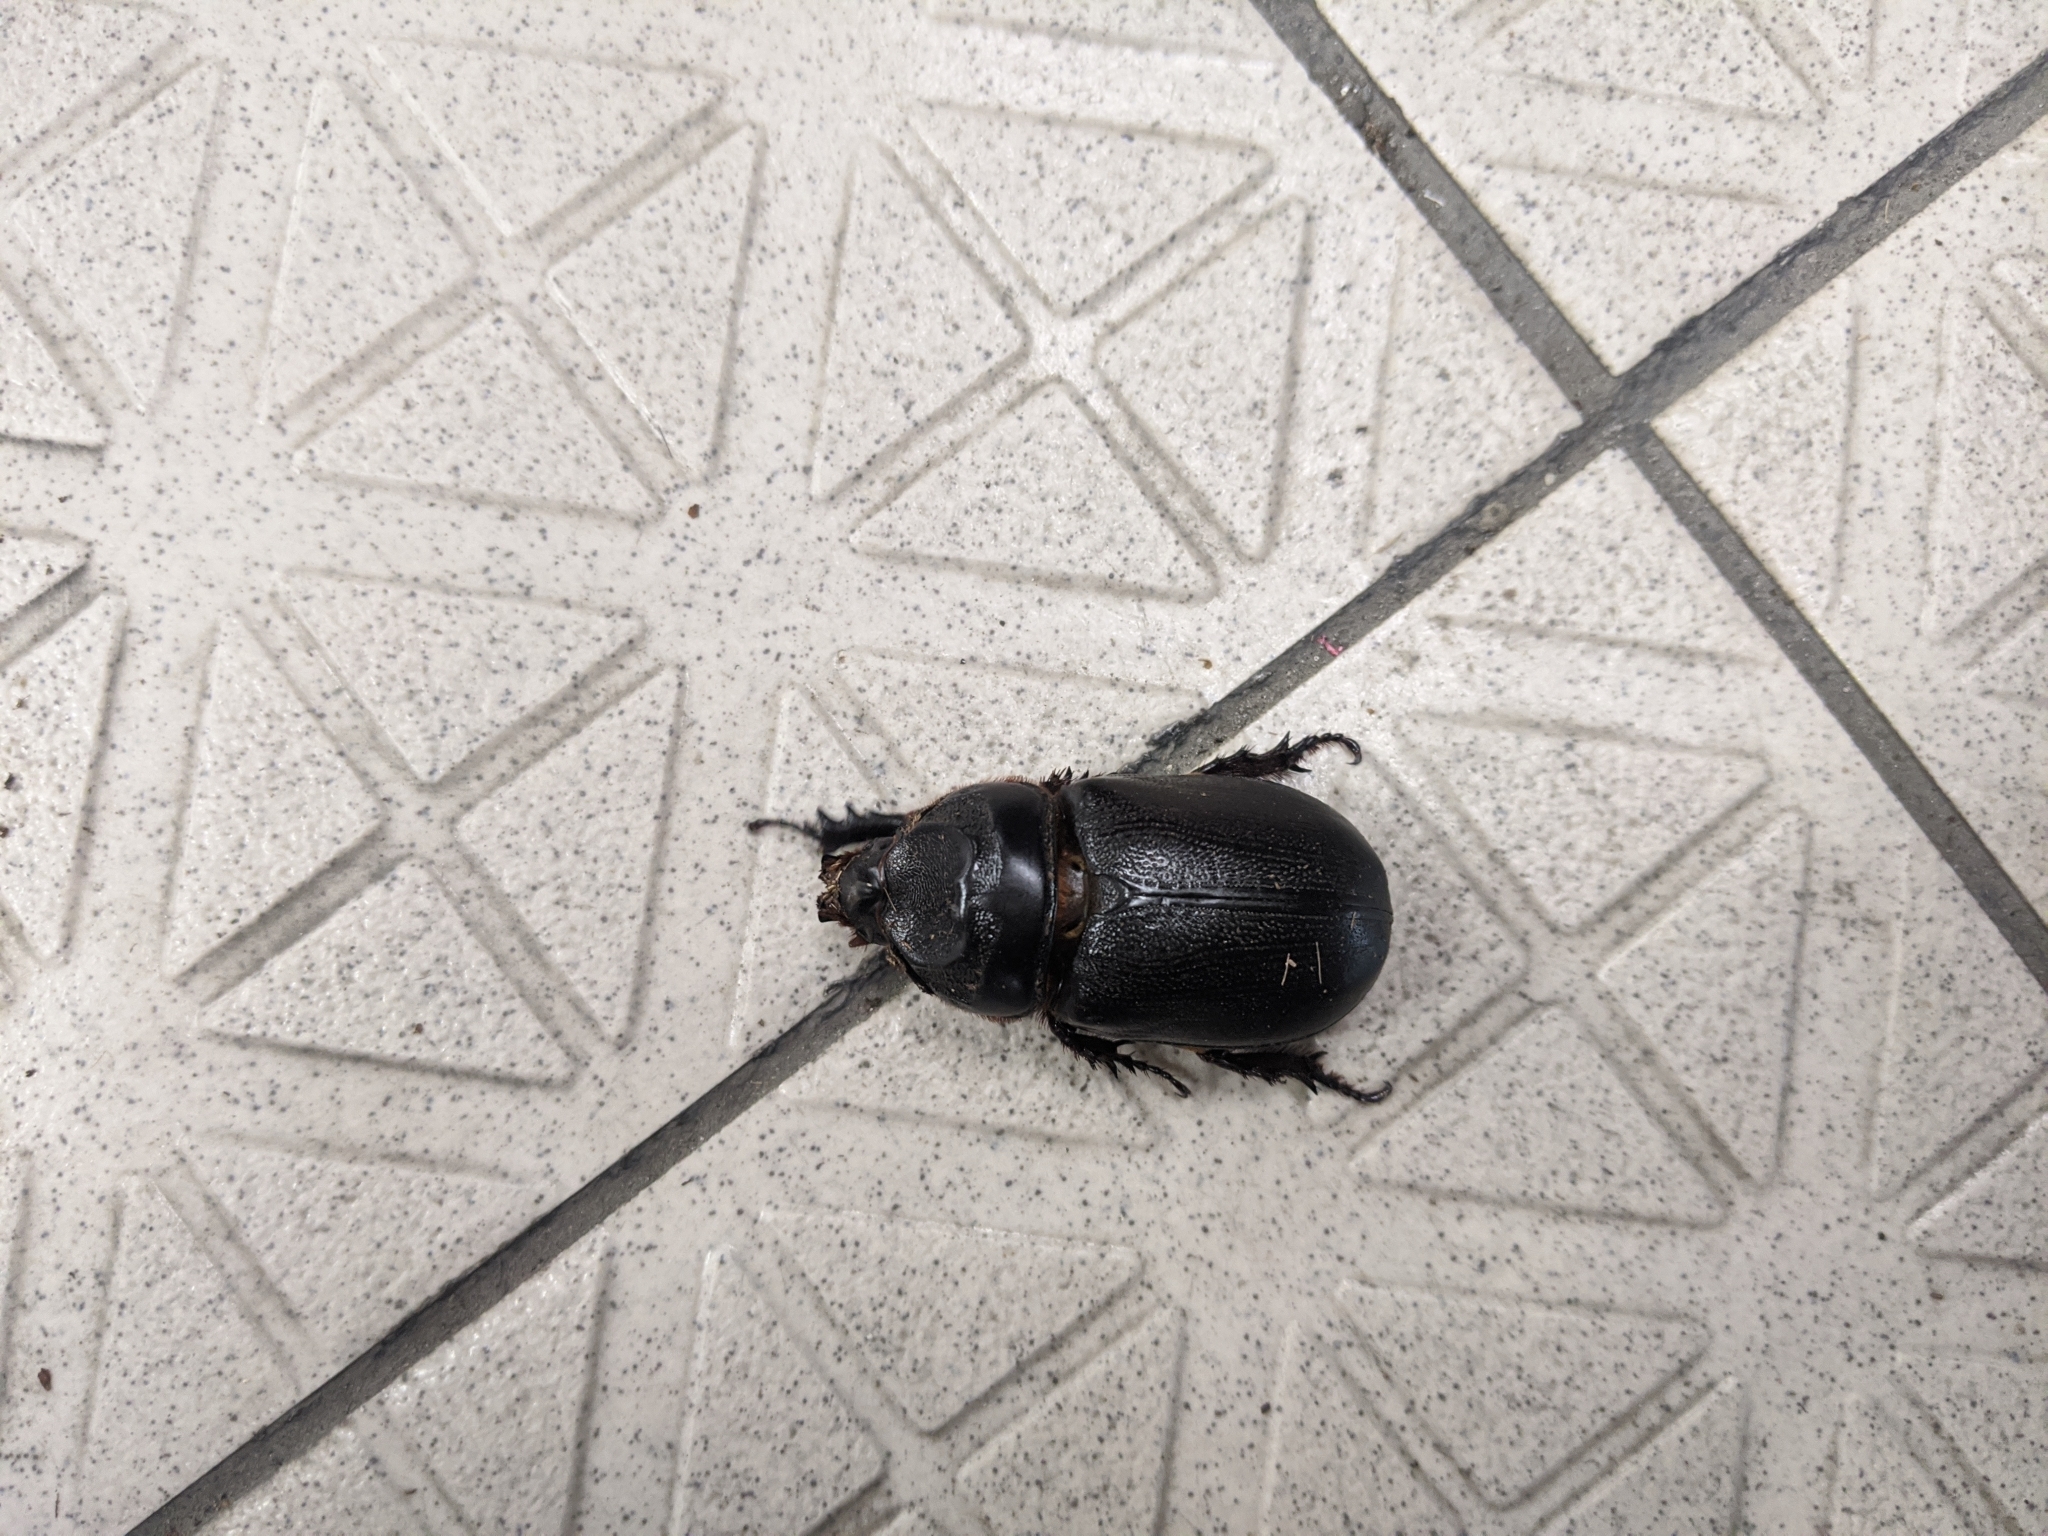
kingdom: Animalia
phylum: Arthropoda
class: Insecta
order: Coleoptera
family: Scarabaeidae
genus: Oryctes
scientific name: Oryctes rhinoceros
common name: Coconut rhinoceros beetle
